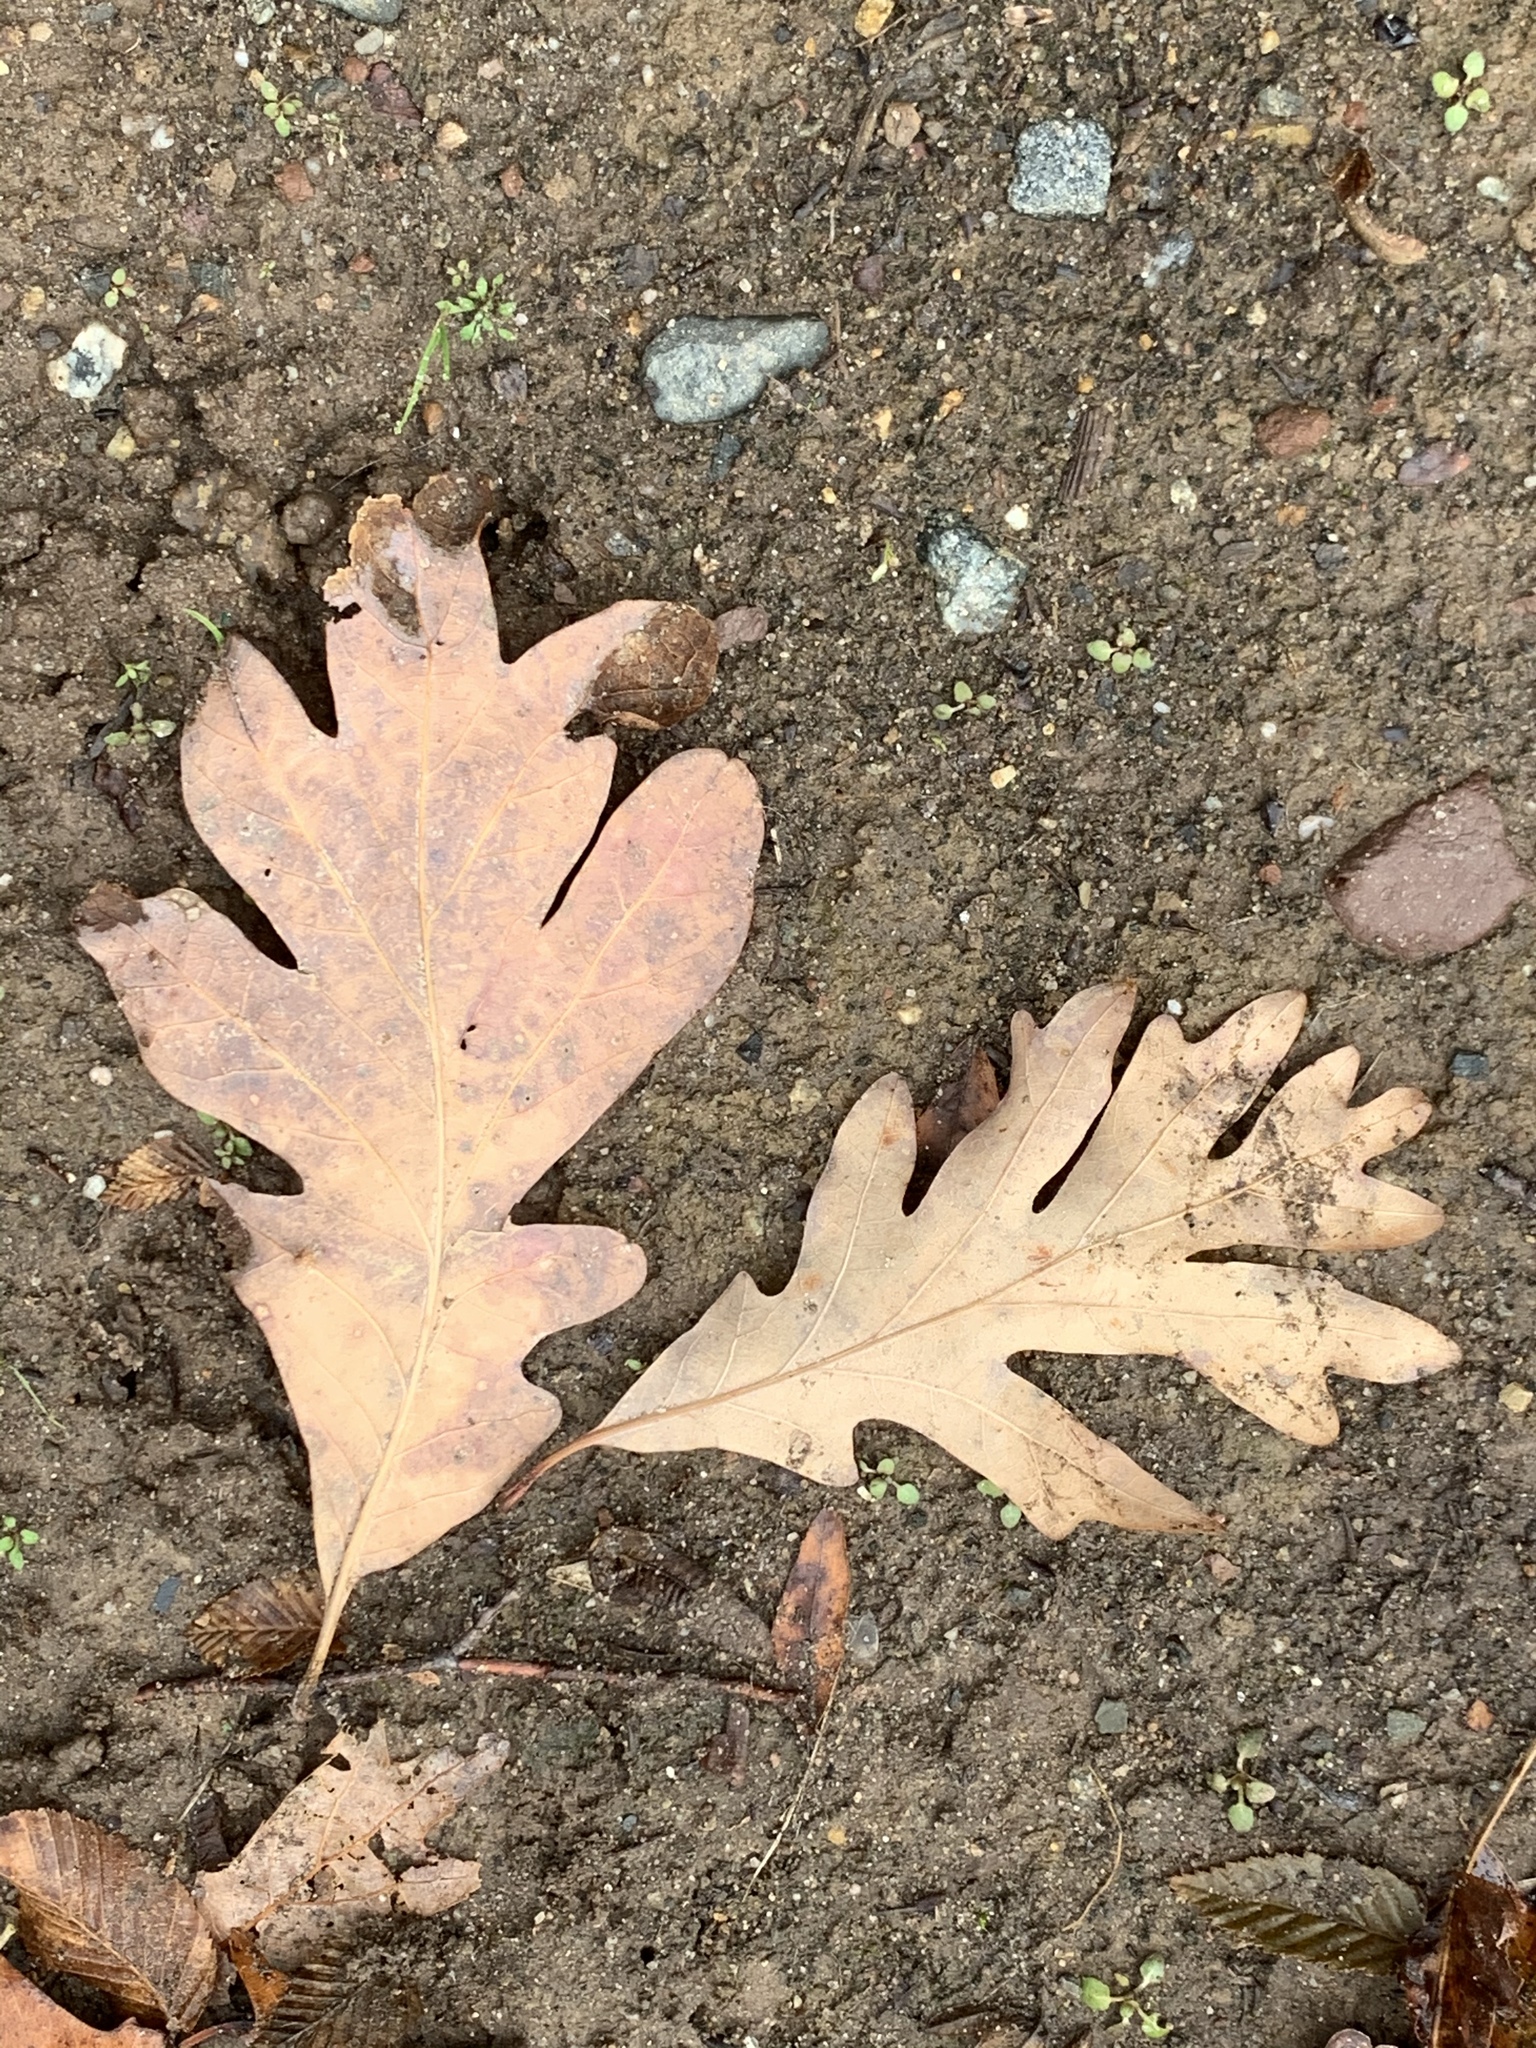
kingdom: Plantae
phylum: Tracheophyta
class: Magnoliopsida
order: Fagales
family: Fagaceae
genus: Quercus
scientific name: Quercus alba
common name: White oak
